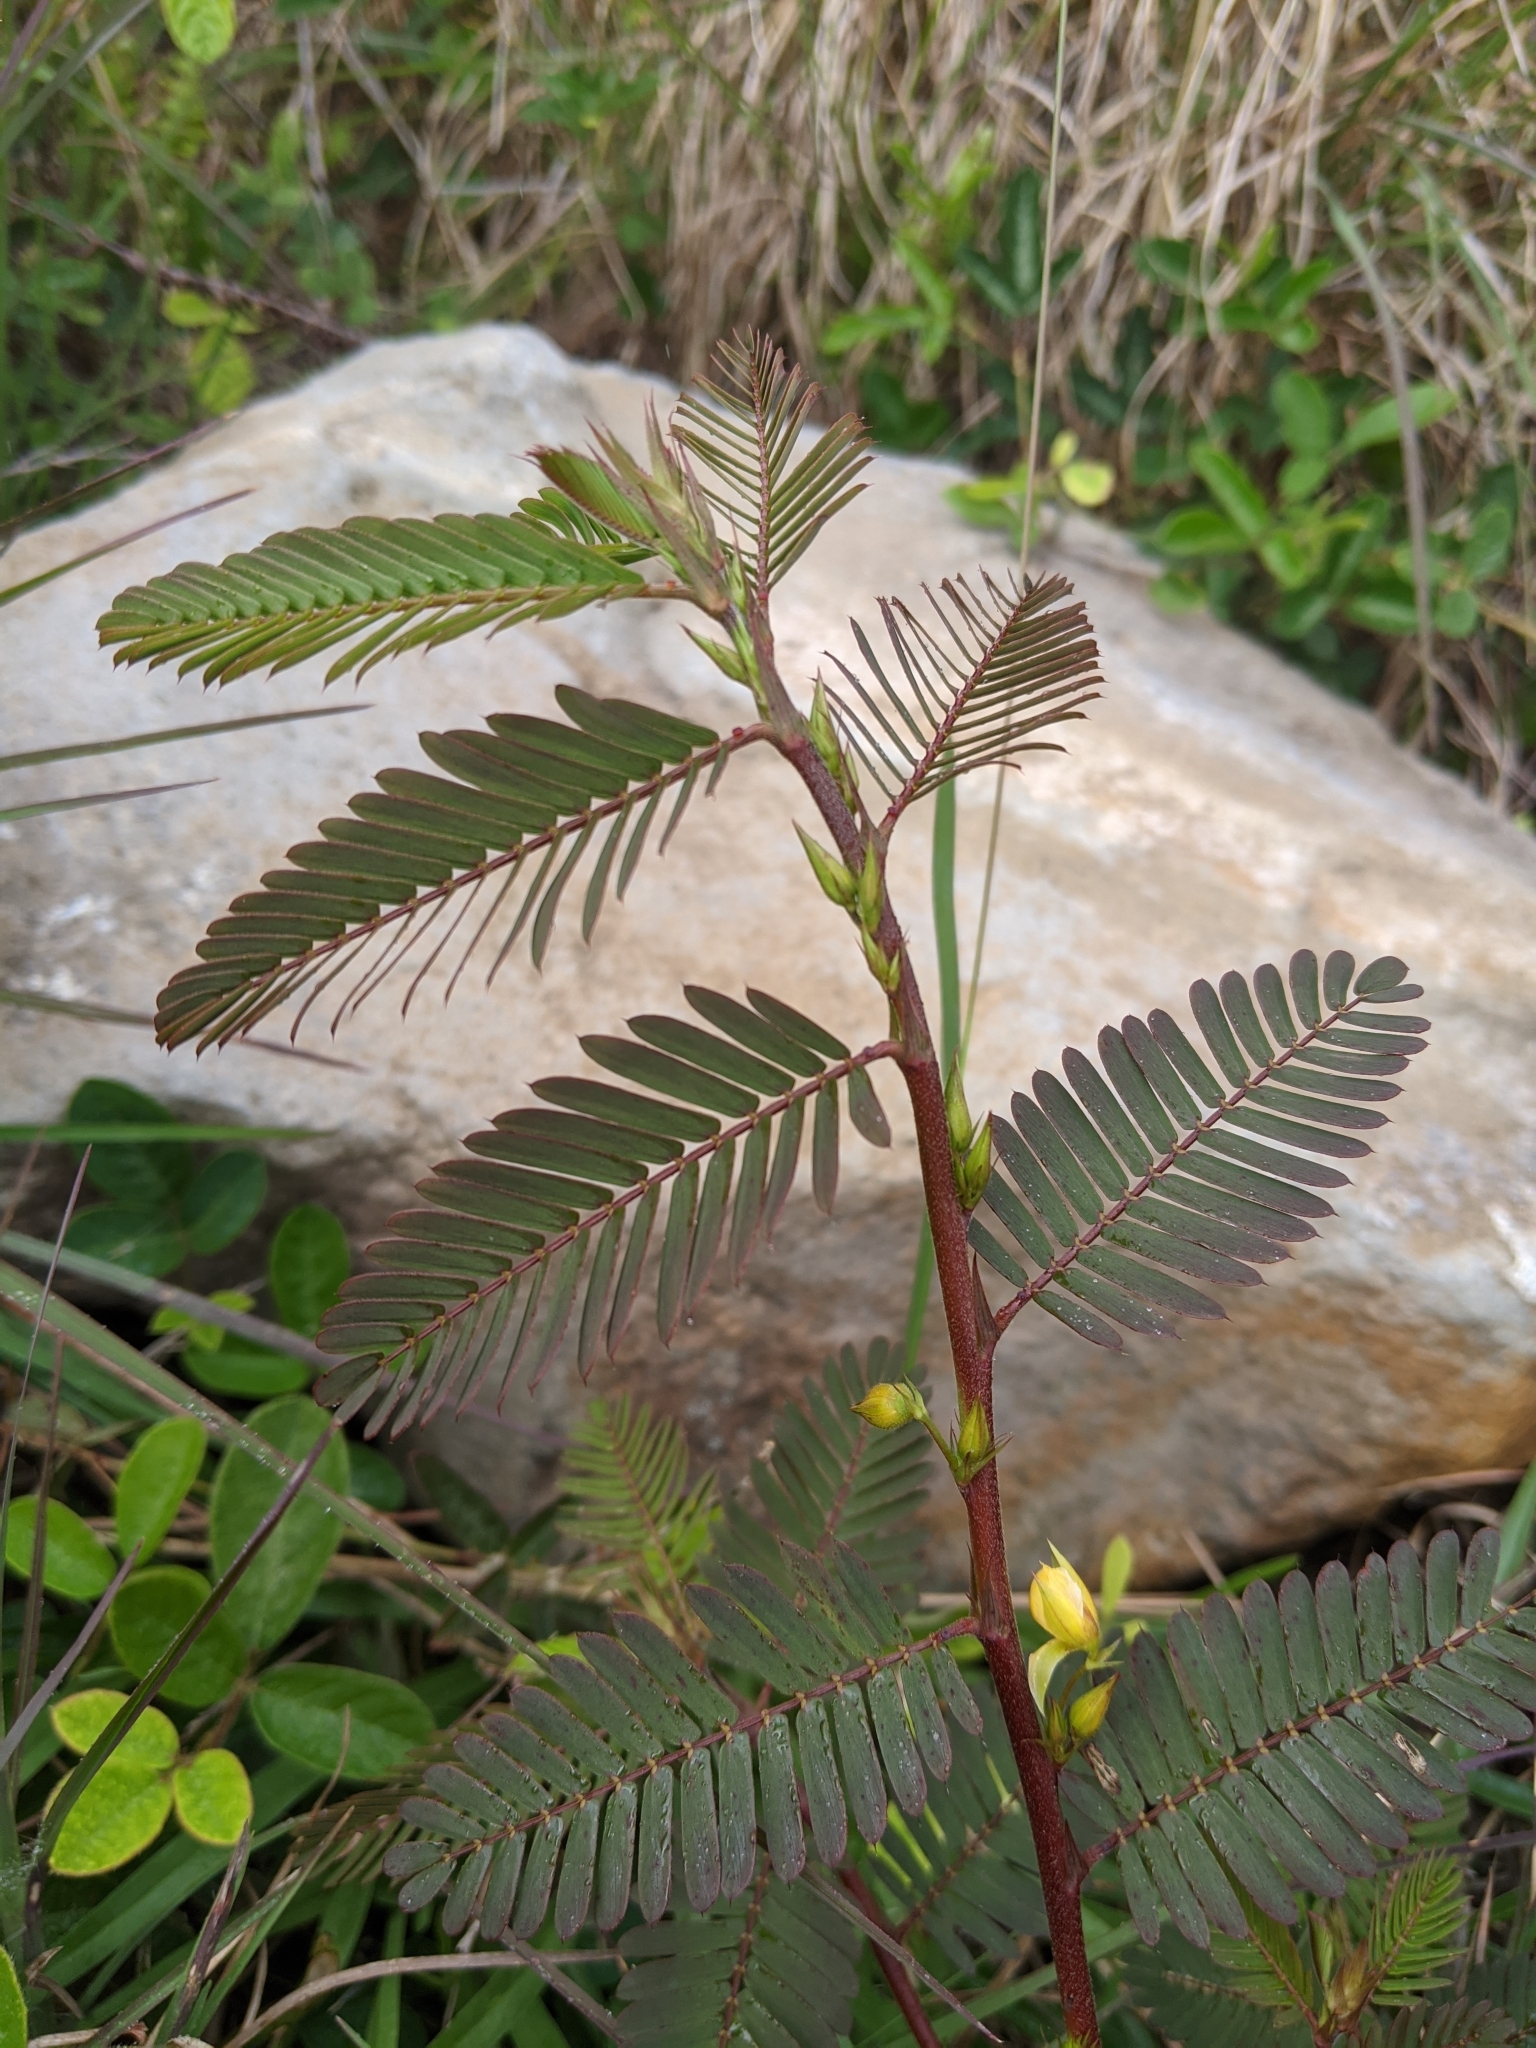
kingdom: Plantae
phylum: Tracheophyta
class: Magnoliopsida
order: Fabales
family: Fabaceae
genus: Chamaecrista
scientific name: Chamaecrista nictitans
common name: Sensitive cassia
